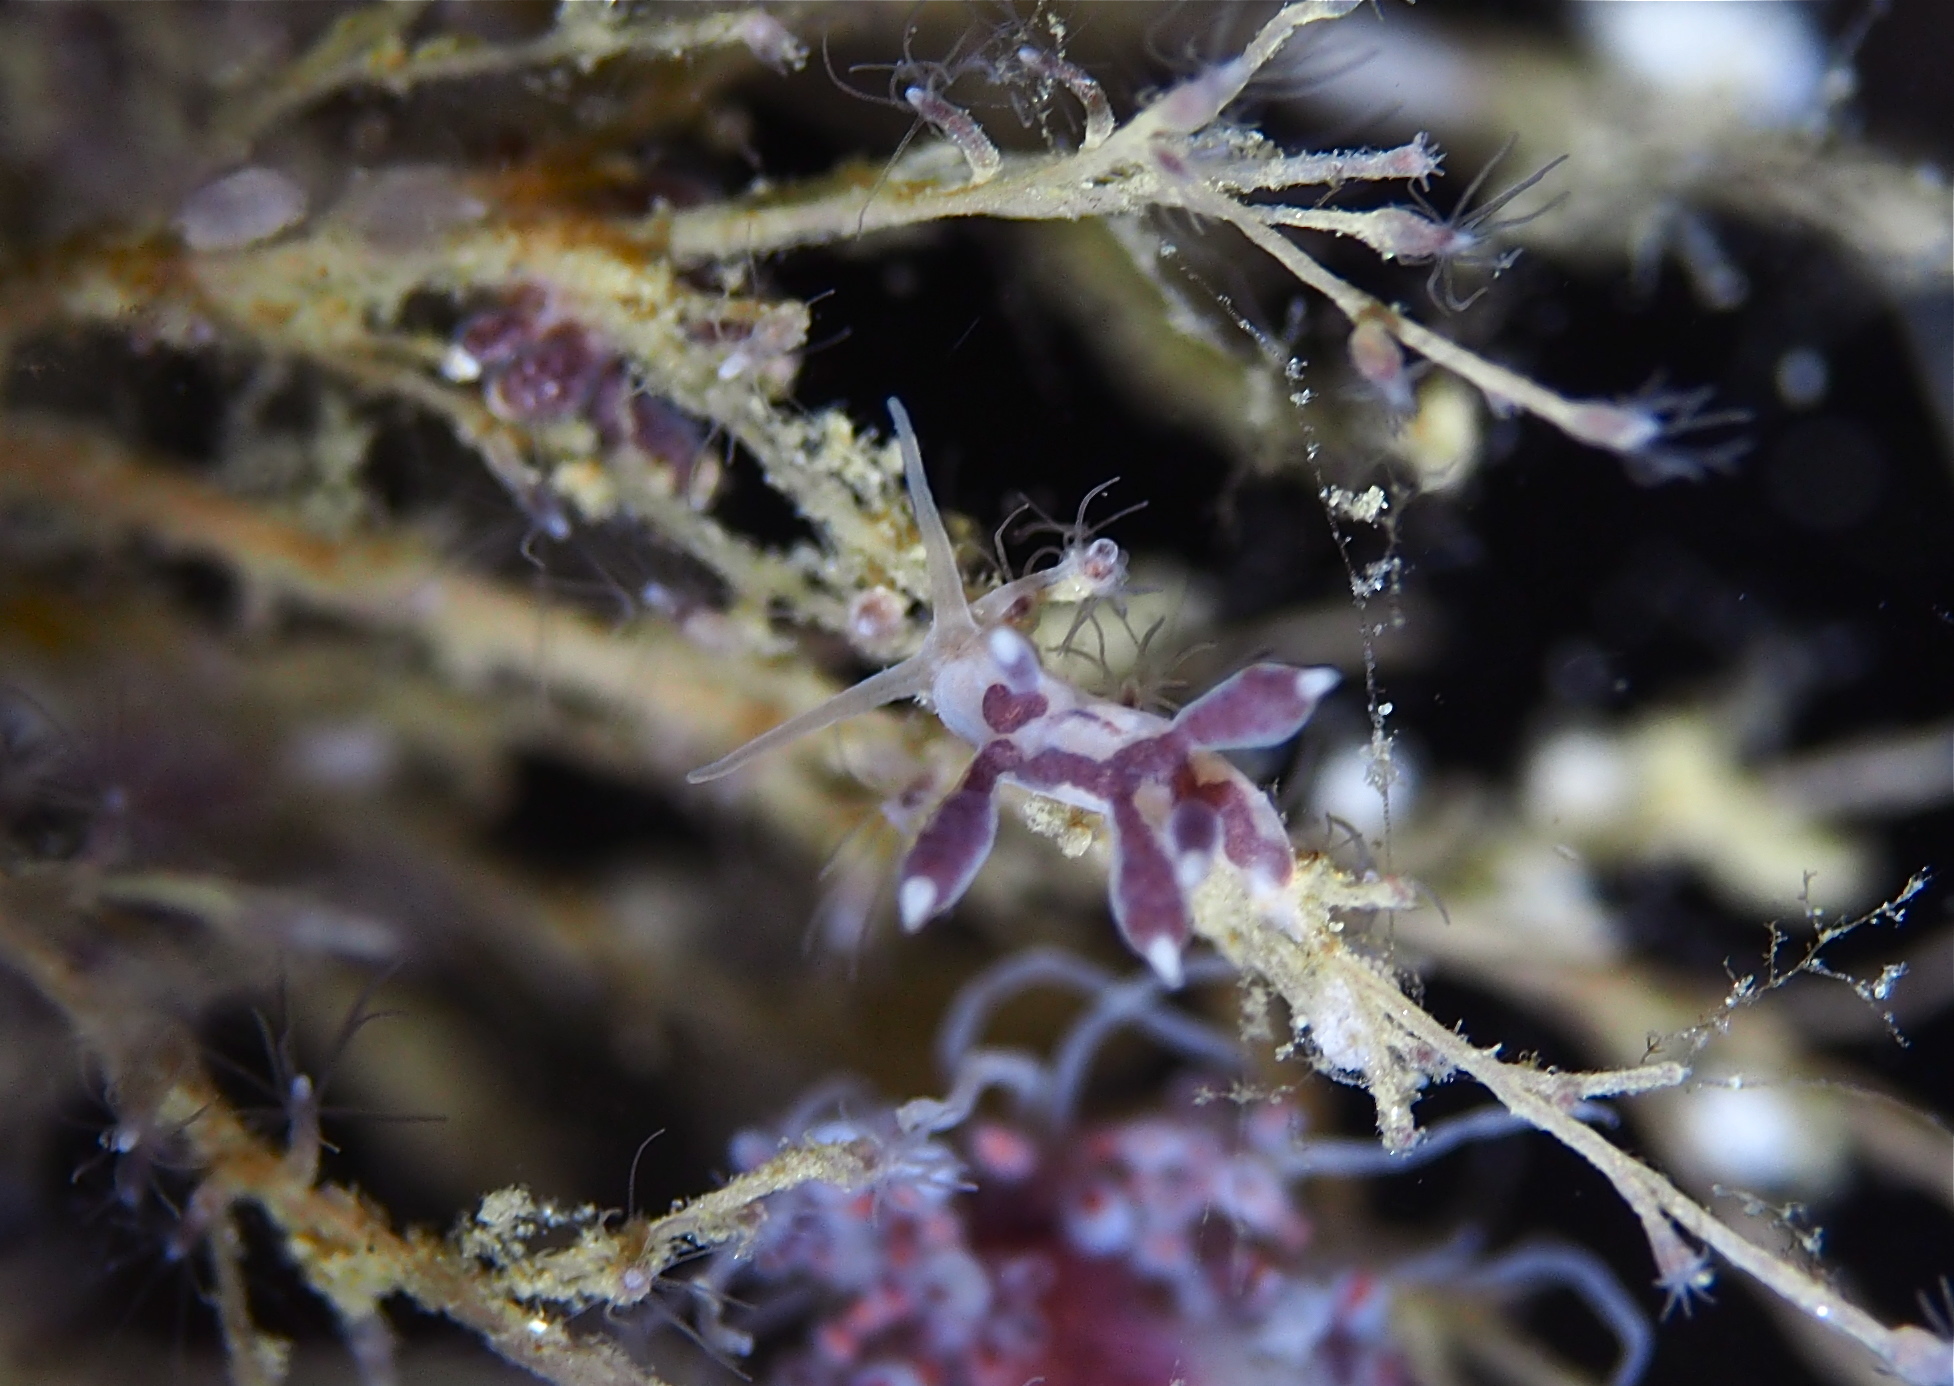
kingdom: Animalia
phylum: Mollusca
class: Gastropoda
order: Nudibranchia
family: Tergipedidae
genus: Tergipes
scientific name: Tergipes tergipes
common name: Johnston's balloon eolis
